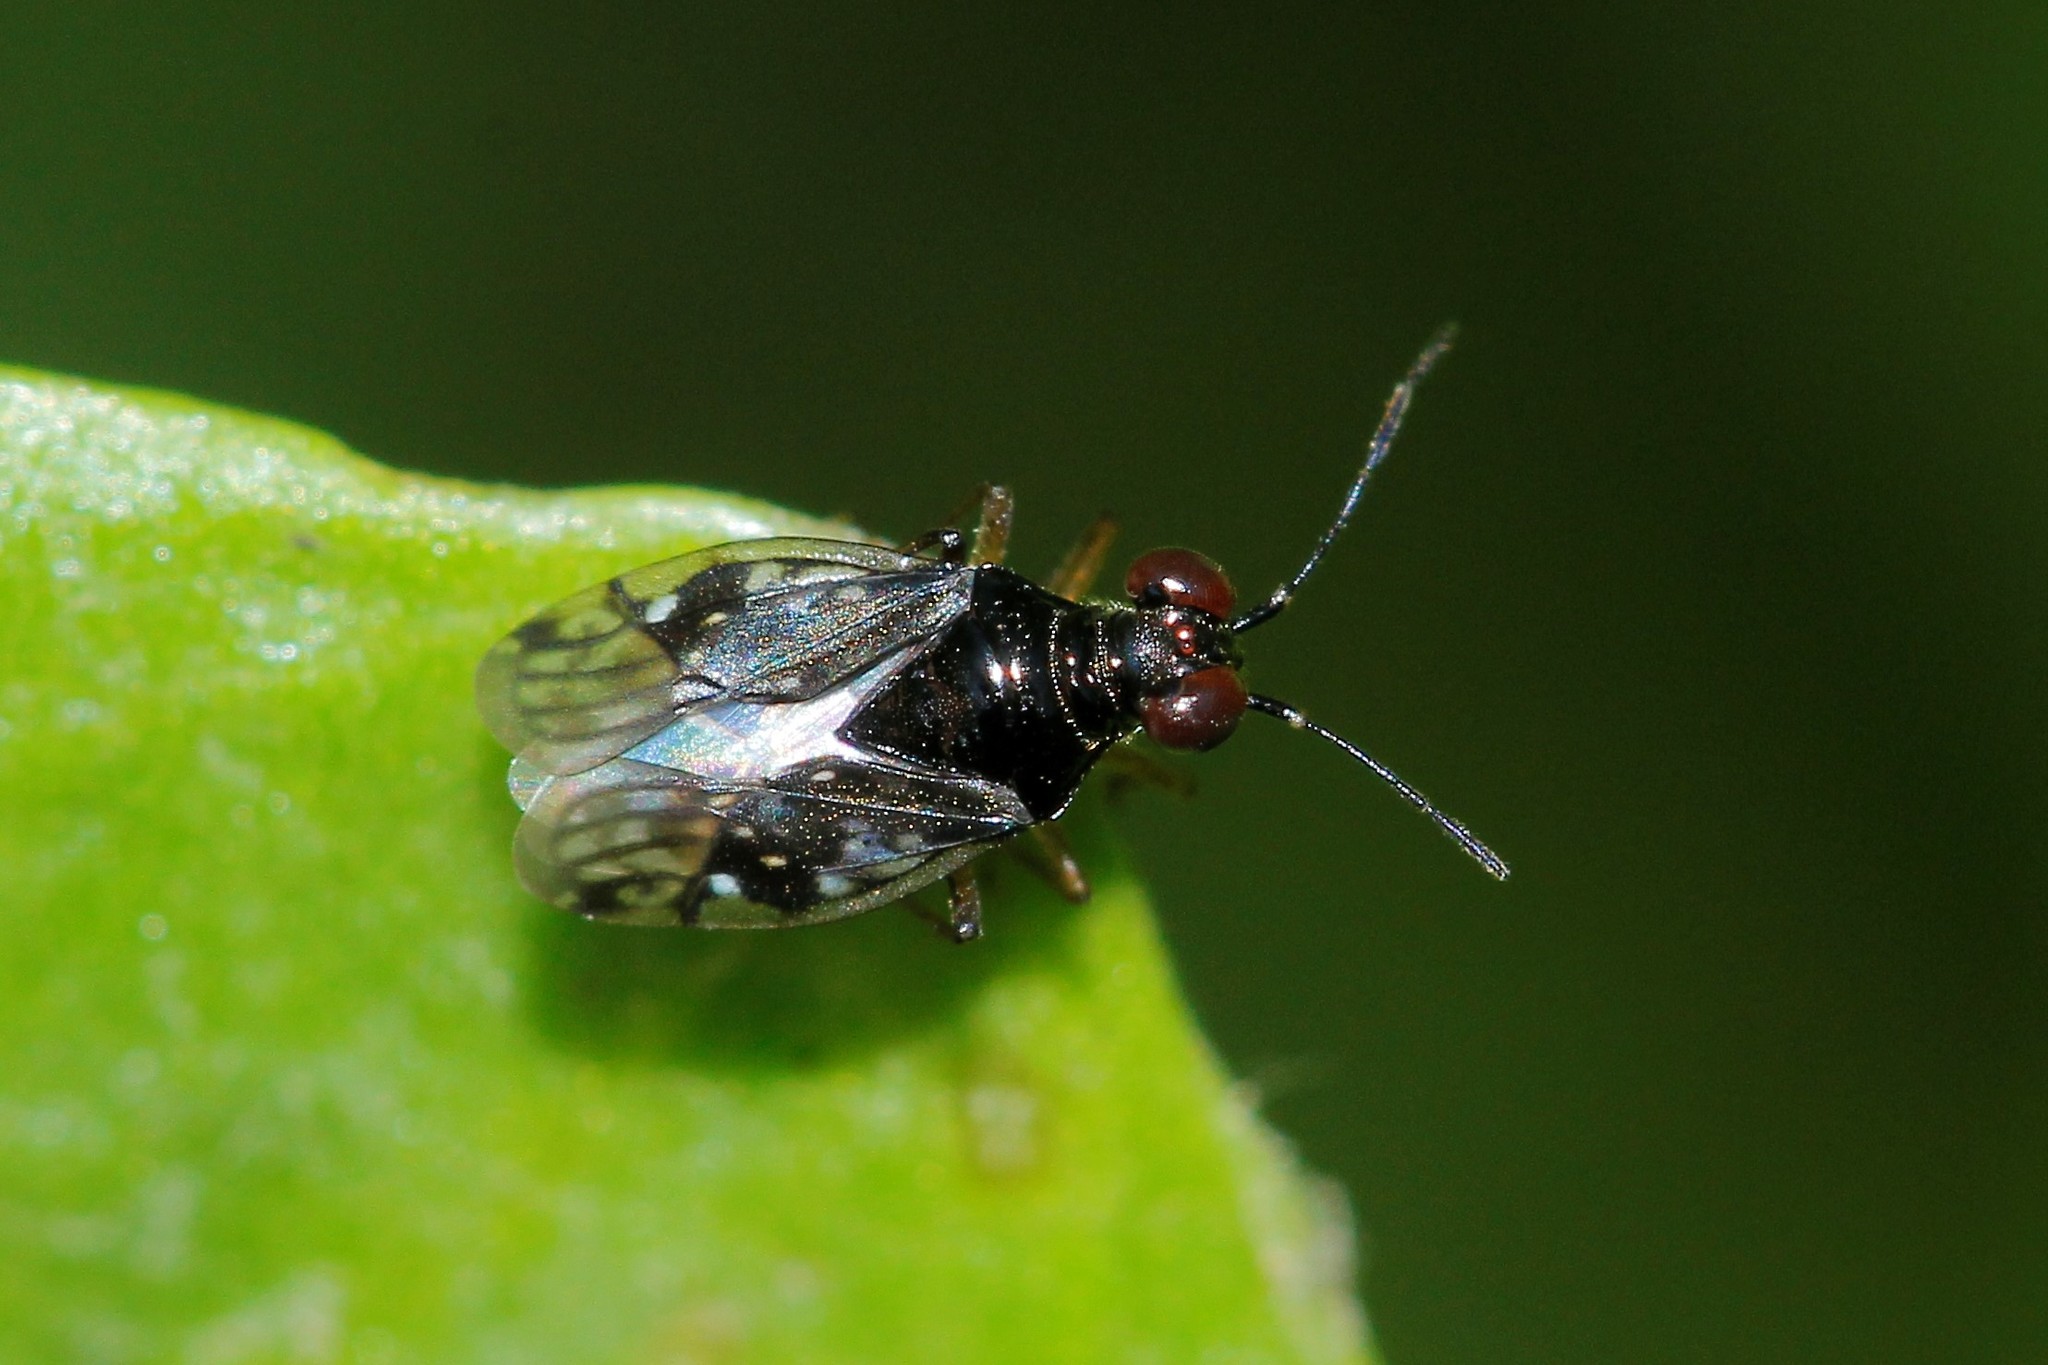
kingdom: Animalia
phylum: Arthropoda
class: Insecta
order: Hemiptera
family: Saldidae
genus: Chartoscirta
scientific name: Chartoscirta elegantula
